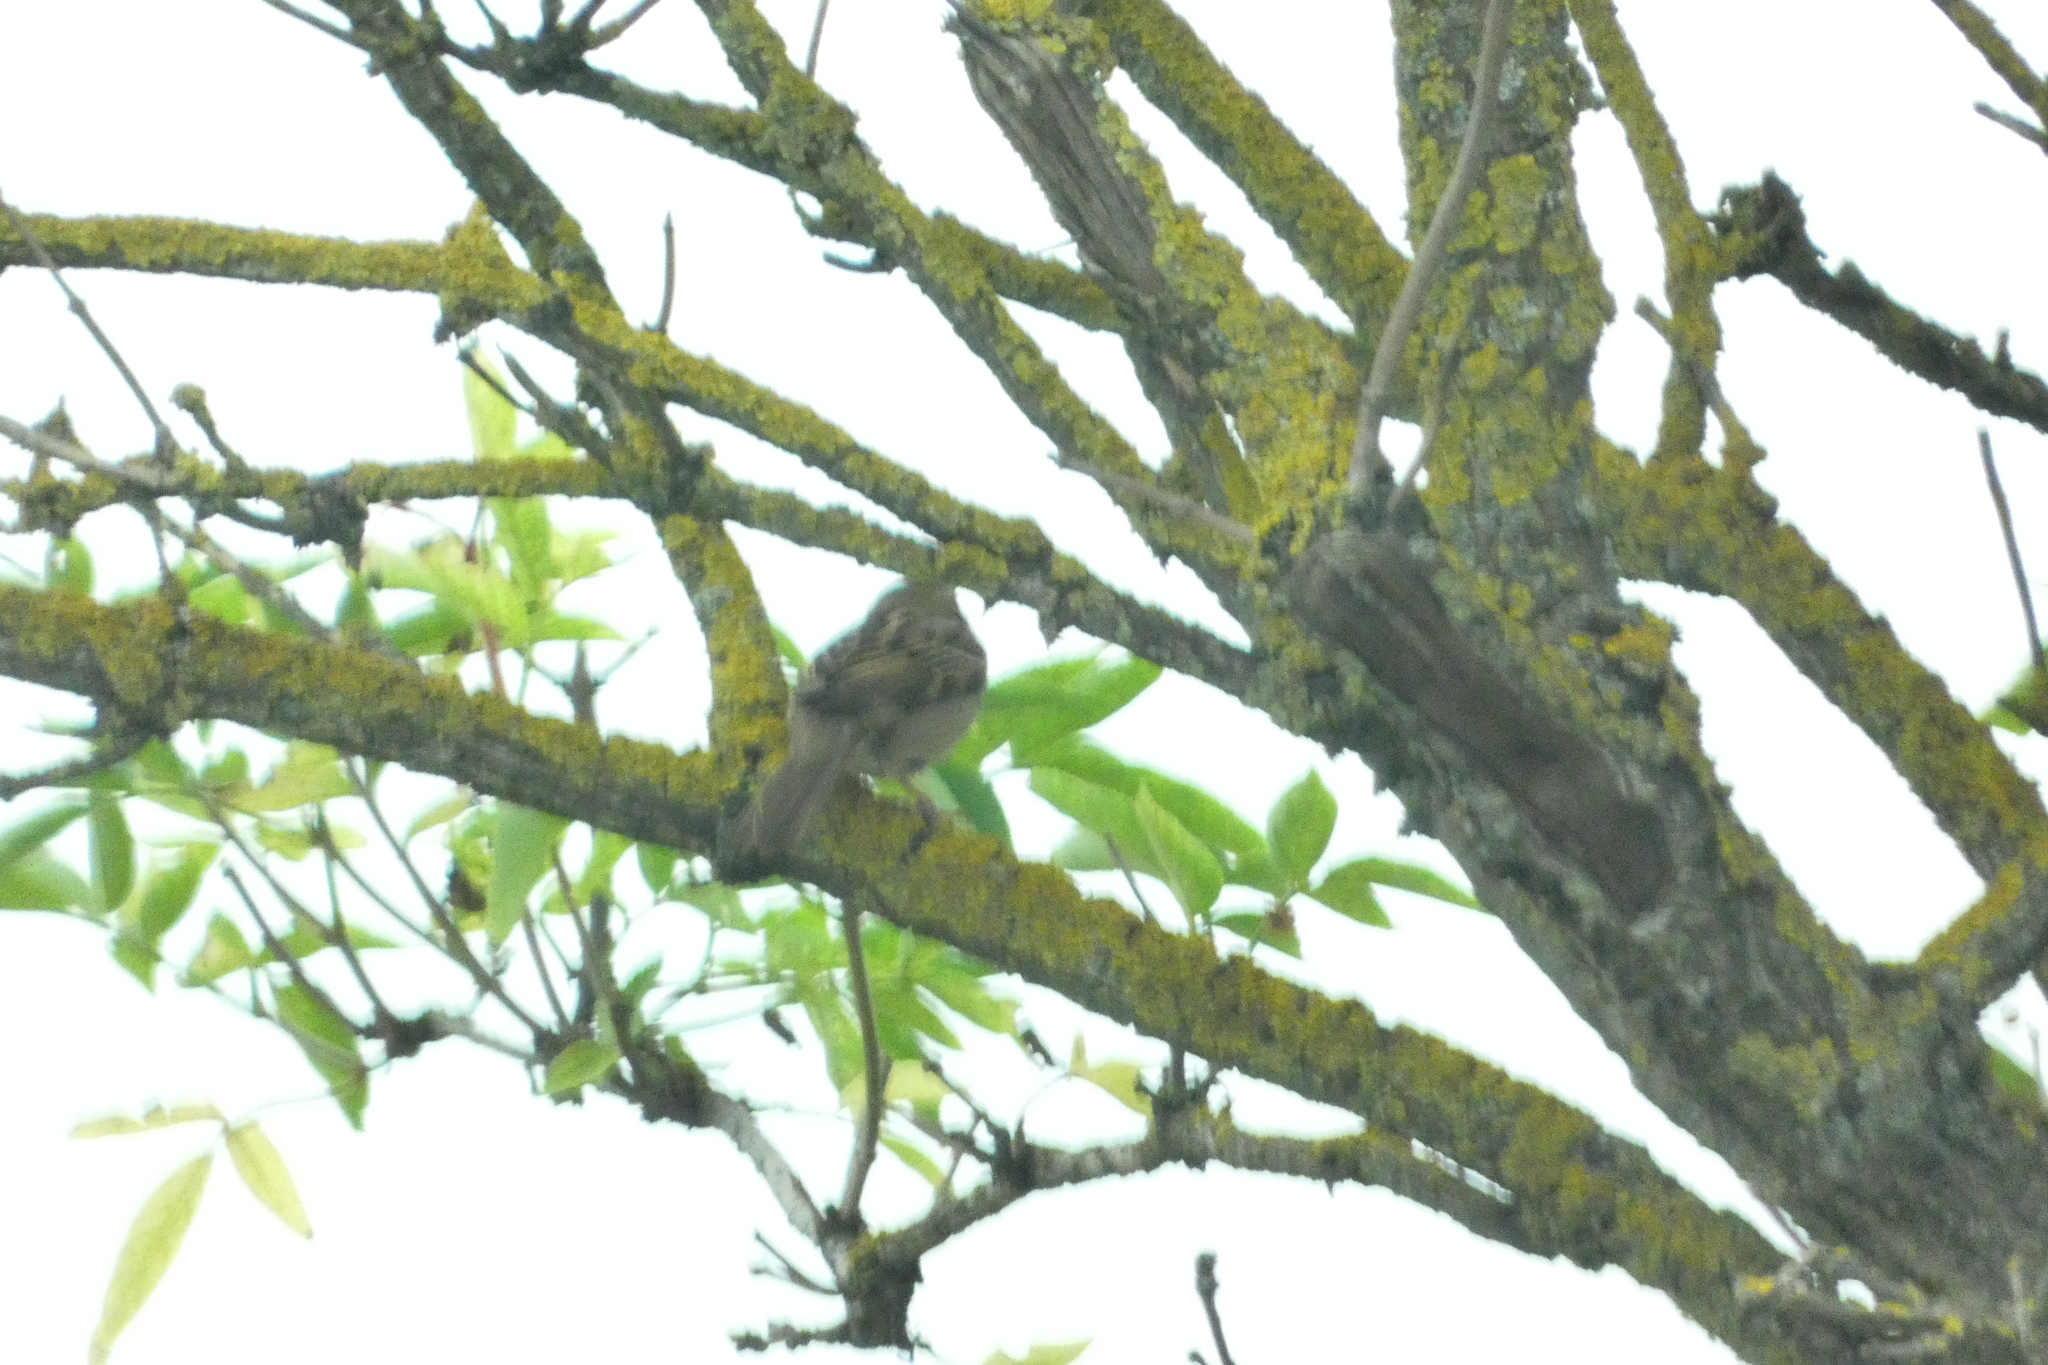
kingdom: Animalia
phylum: Chordata
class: Aves
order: Passeriformes
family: Passeridae
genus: Passer
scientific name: Passer domesticus
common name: House sparrow
